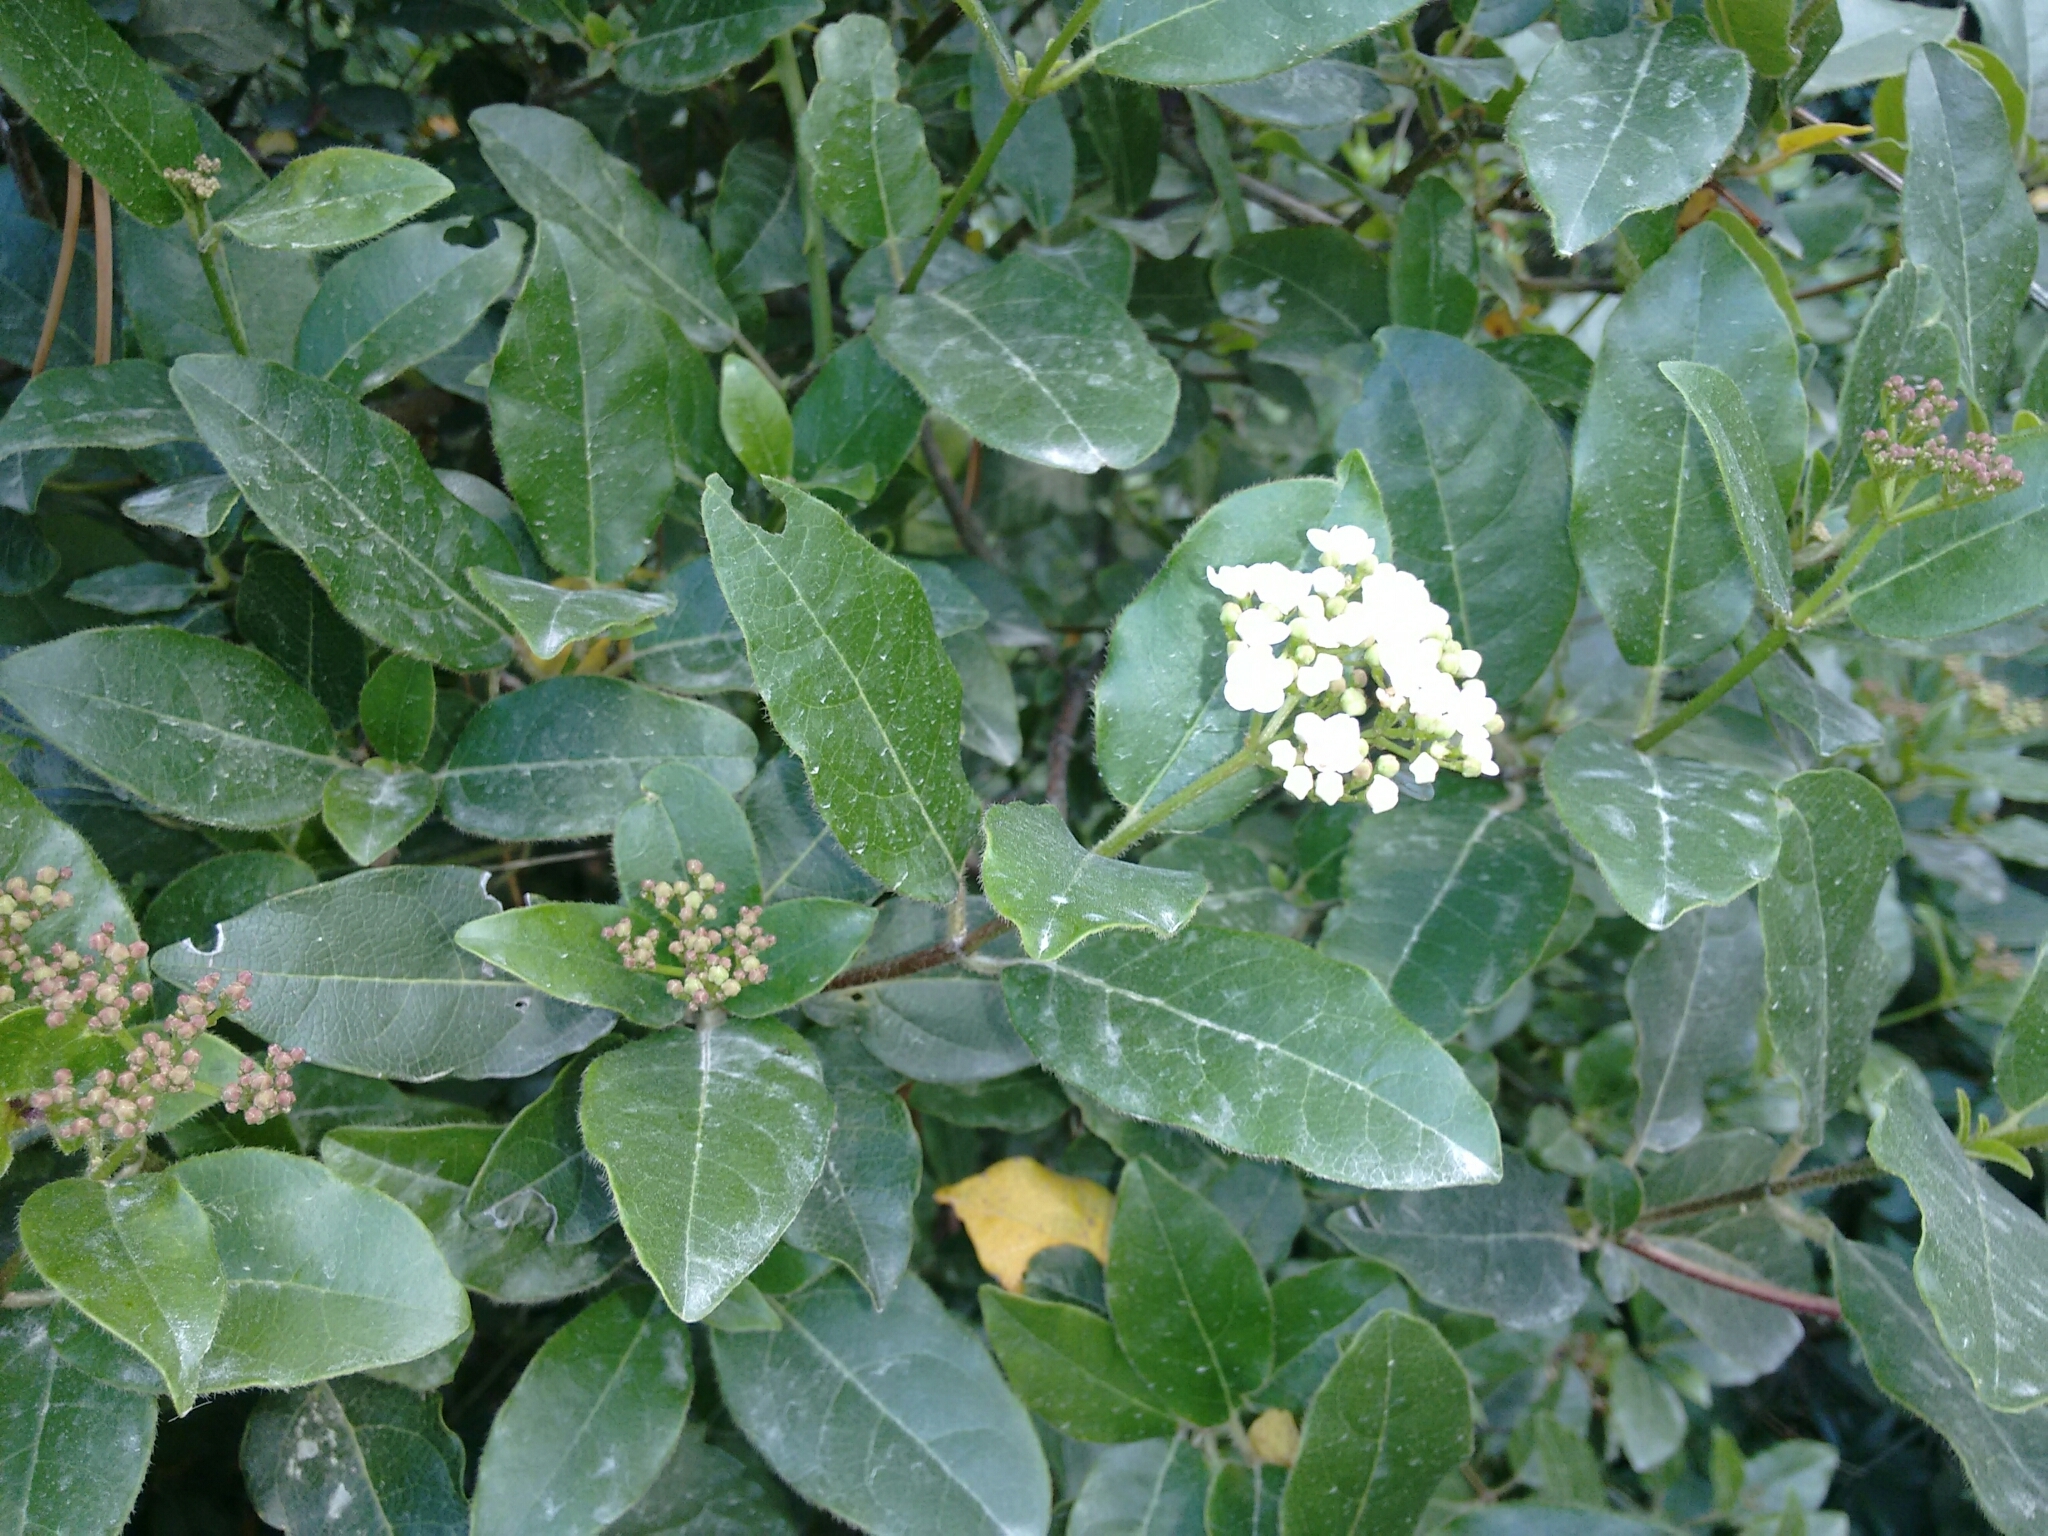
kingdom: Plantae
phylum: Tracheophyta
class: Magnoliopsida
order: Dipsacales
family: Viburnaceae
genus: Viburnum
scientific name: Viburnum tinus
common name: Laurustinus
